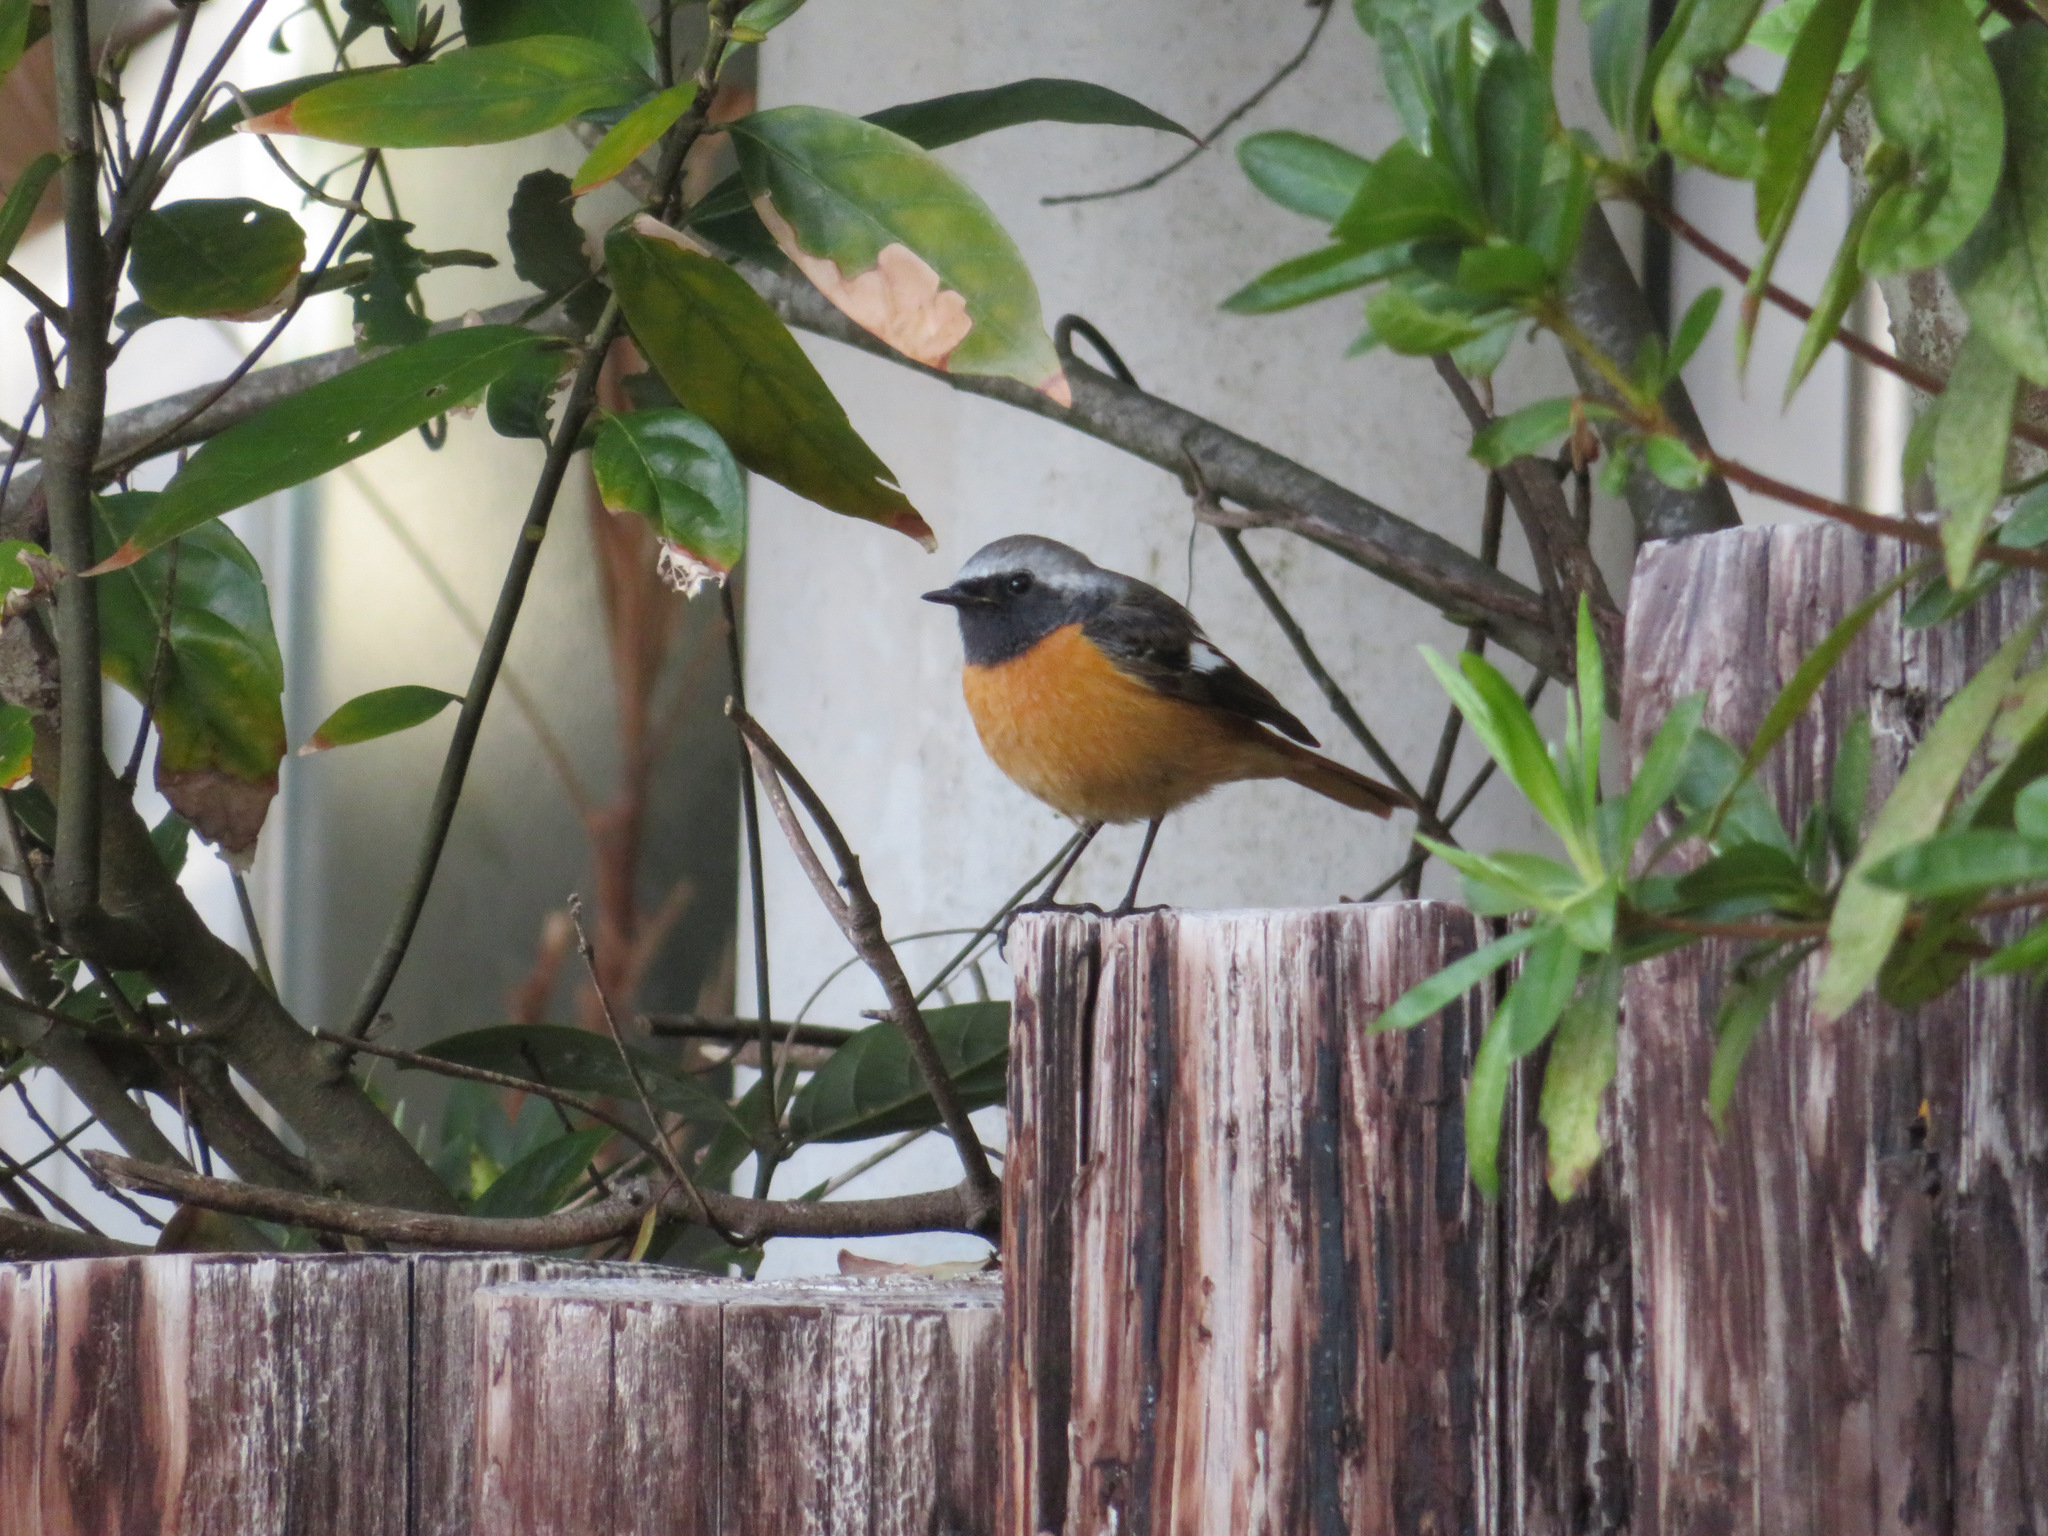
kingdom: Animalia
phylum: Chordata
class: Aves
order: Passeriformes
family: Muscicapidae
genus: Phoenicurus
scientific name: Phoenicurus auroreus
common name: Daurian redstart
